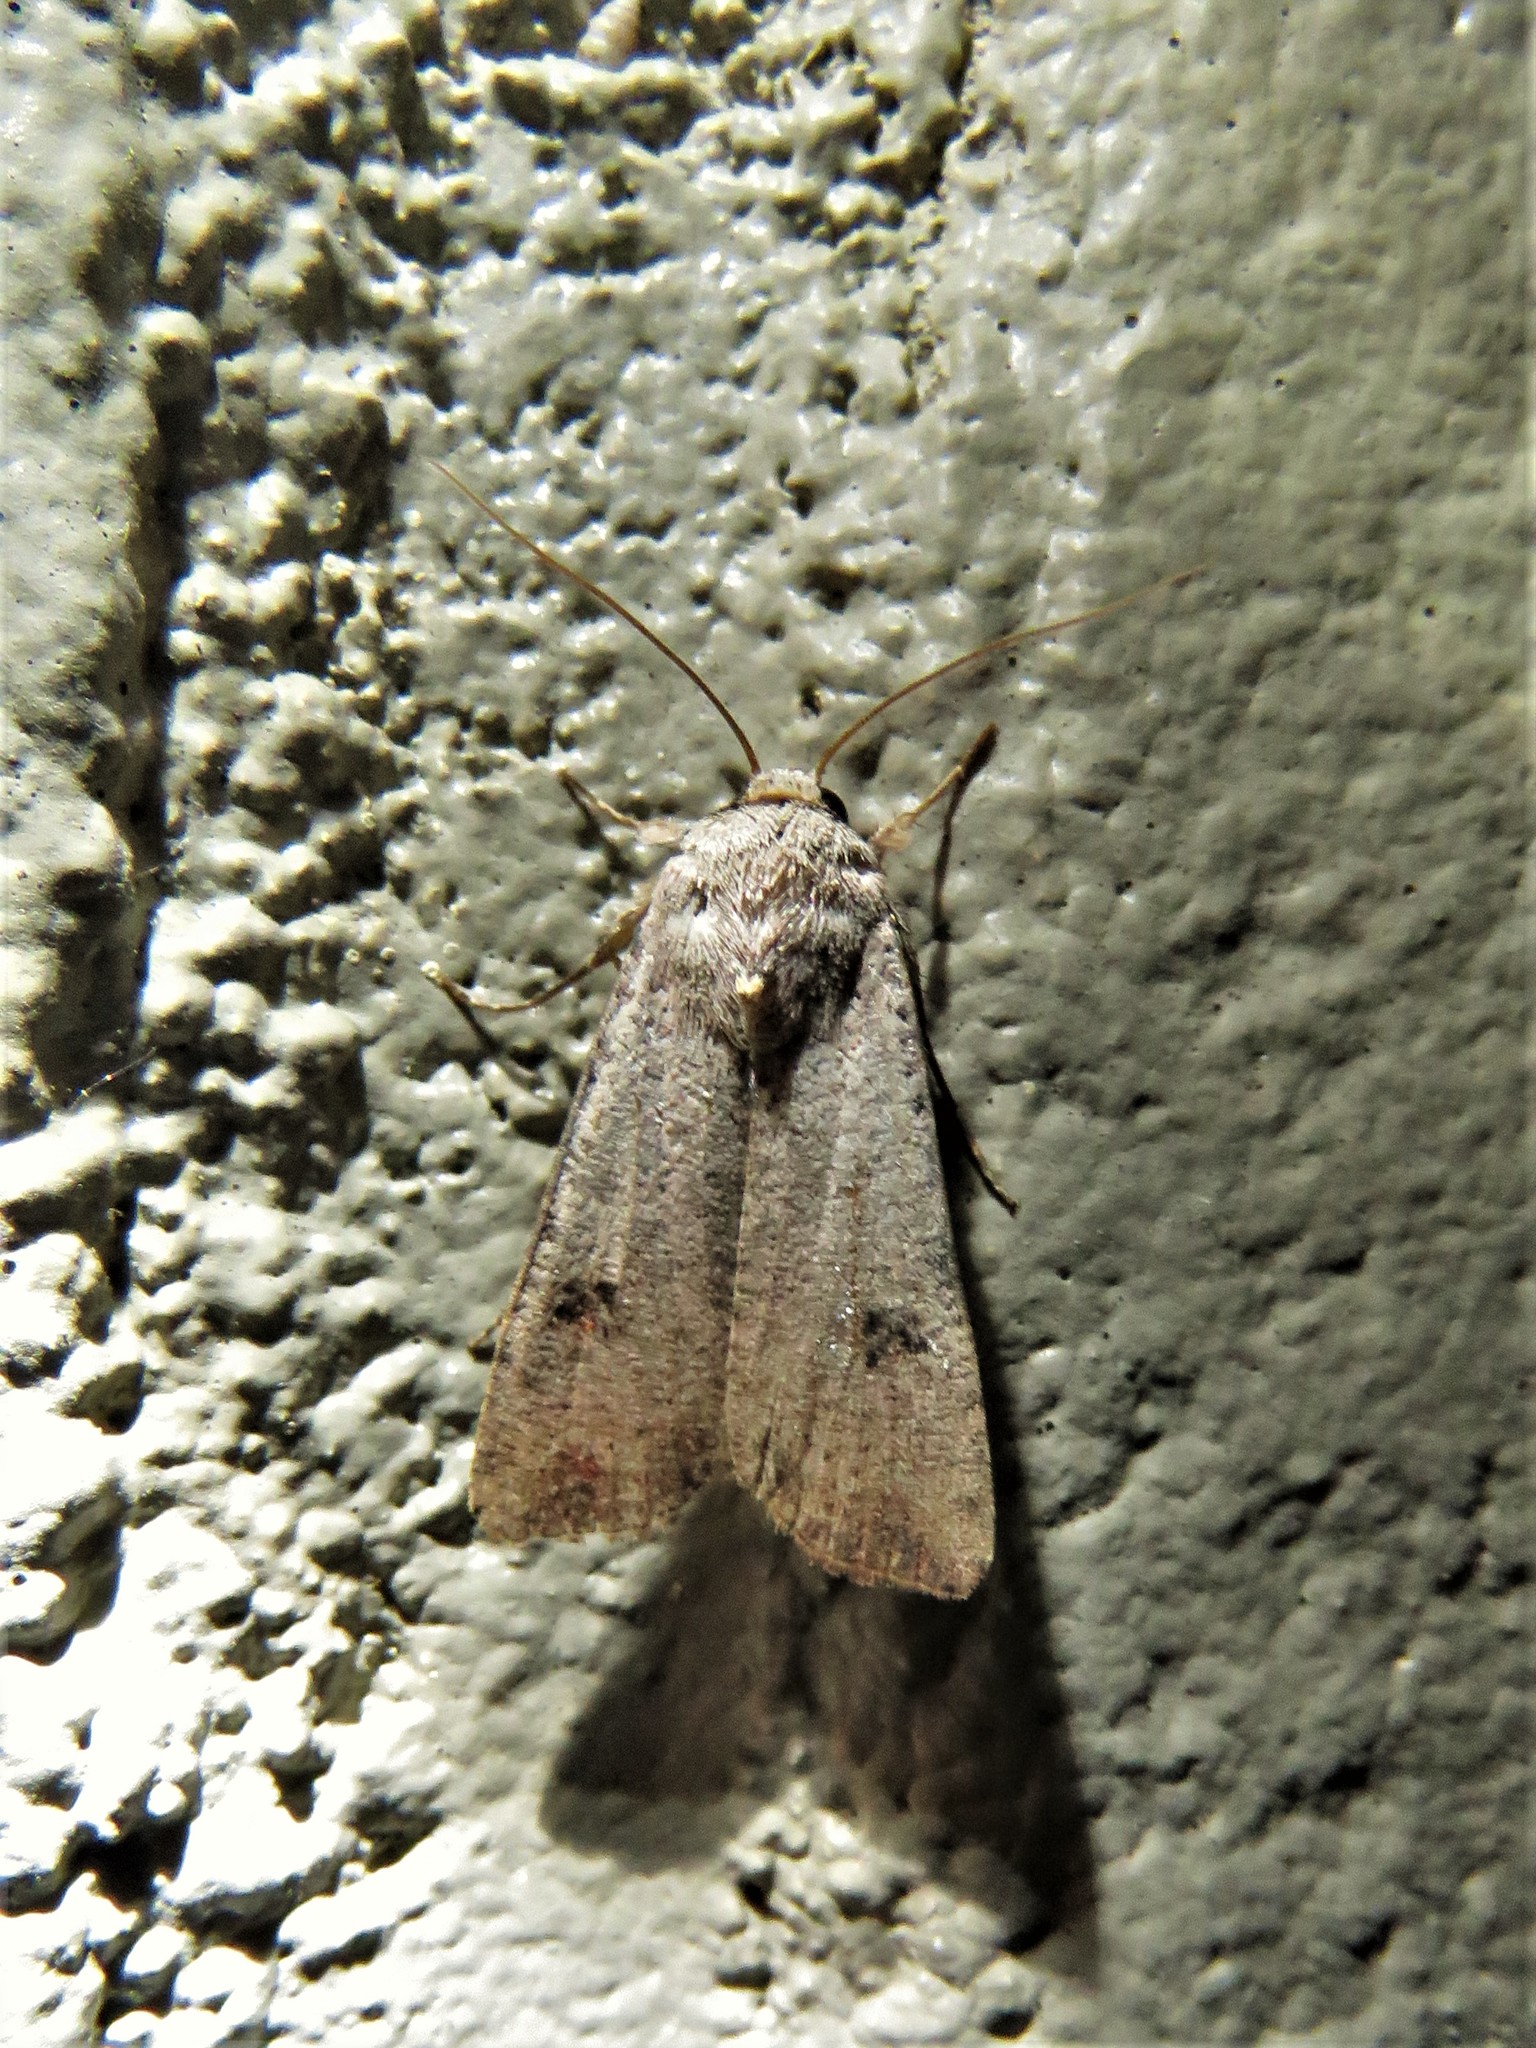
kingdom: Animalia
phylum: Arthropoda
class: Insecta
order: Lepidoptera
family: Noctuidae
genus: Anicla
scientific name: Anicla infecta
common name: Green cutworm
